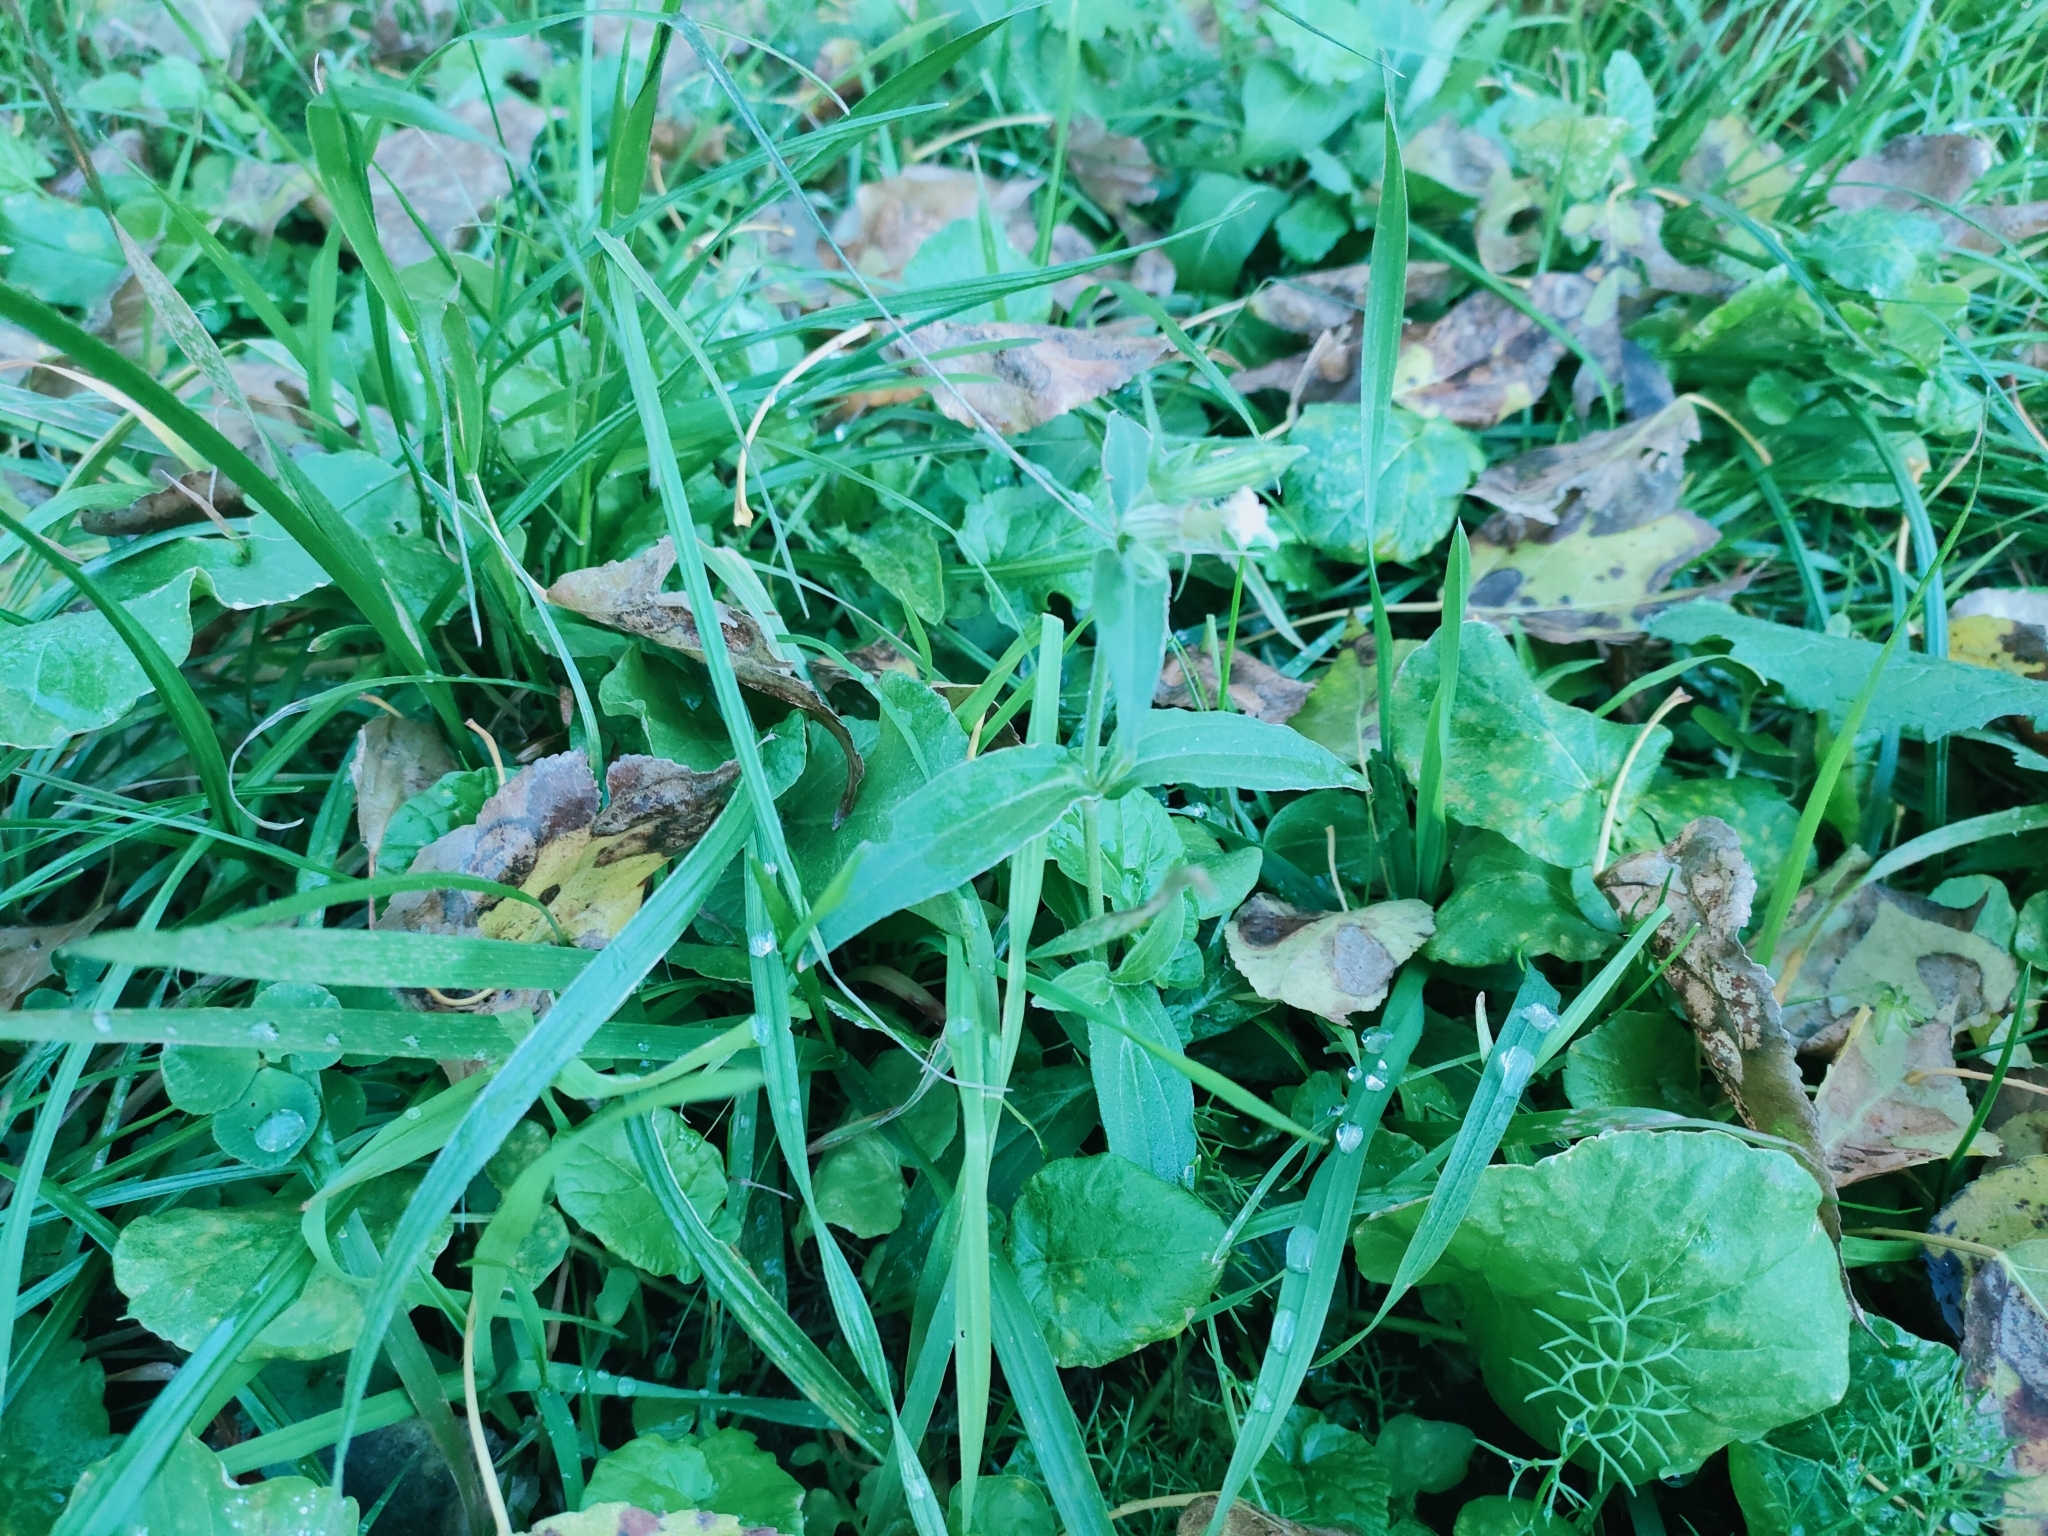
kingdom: Plantae
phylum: Tracheophyta
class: Magnoliopsida
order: Caryophyllales
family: Caryophyllaceae
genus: Silene
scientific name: Silene latifolia
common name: White campion
